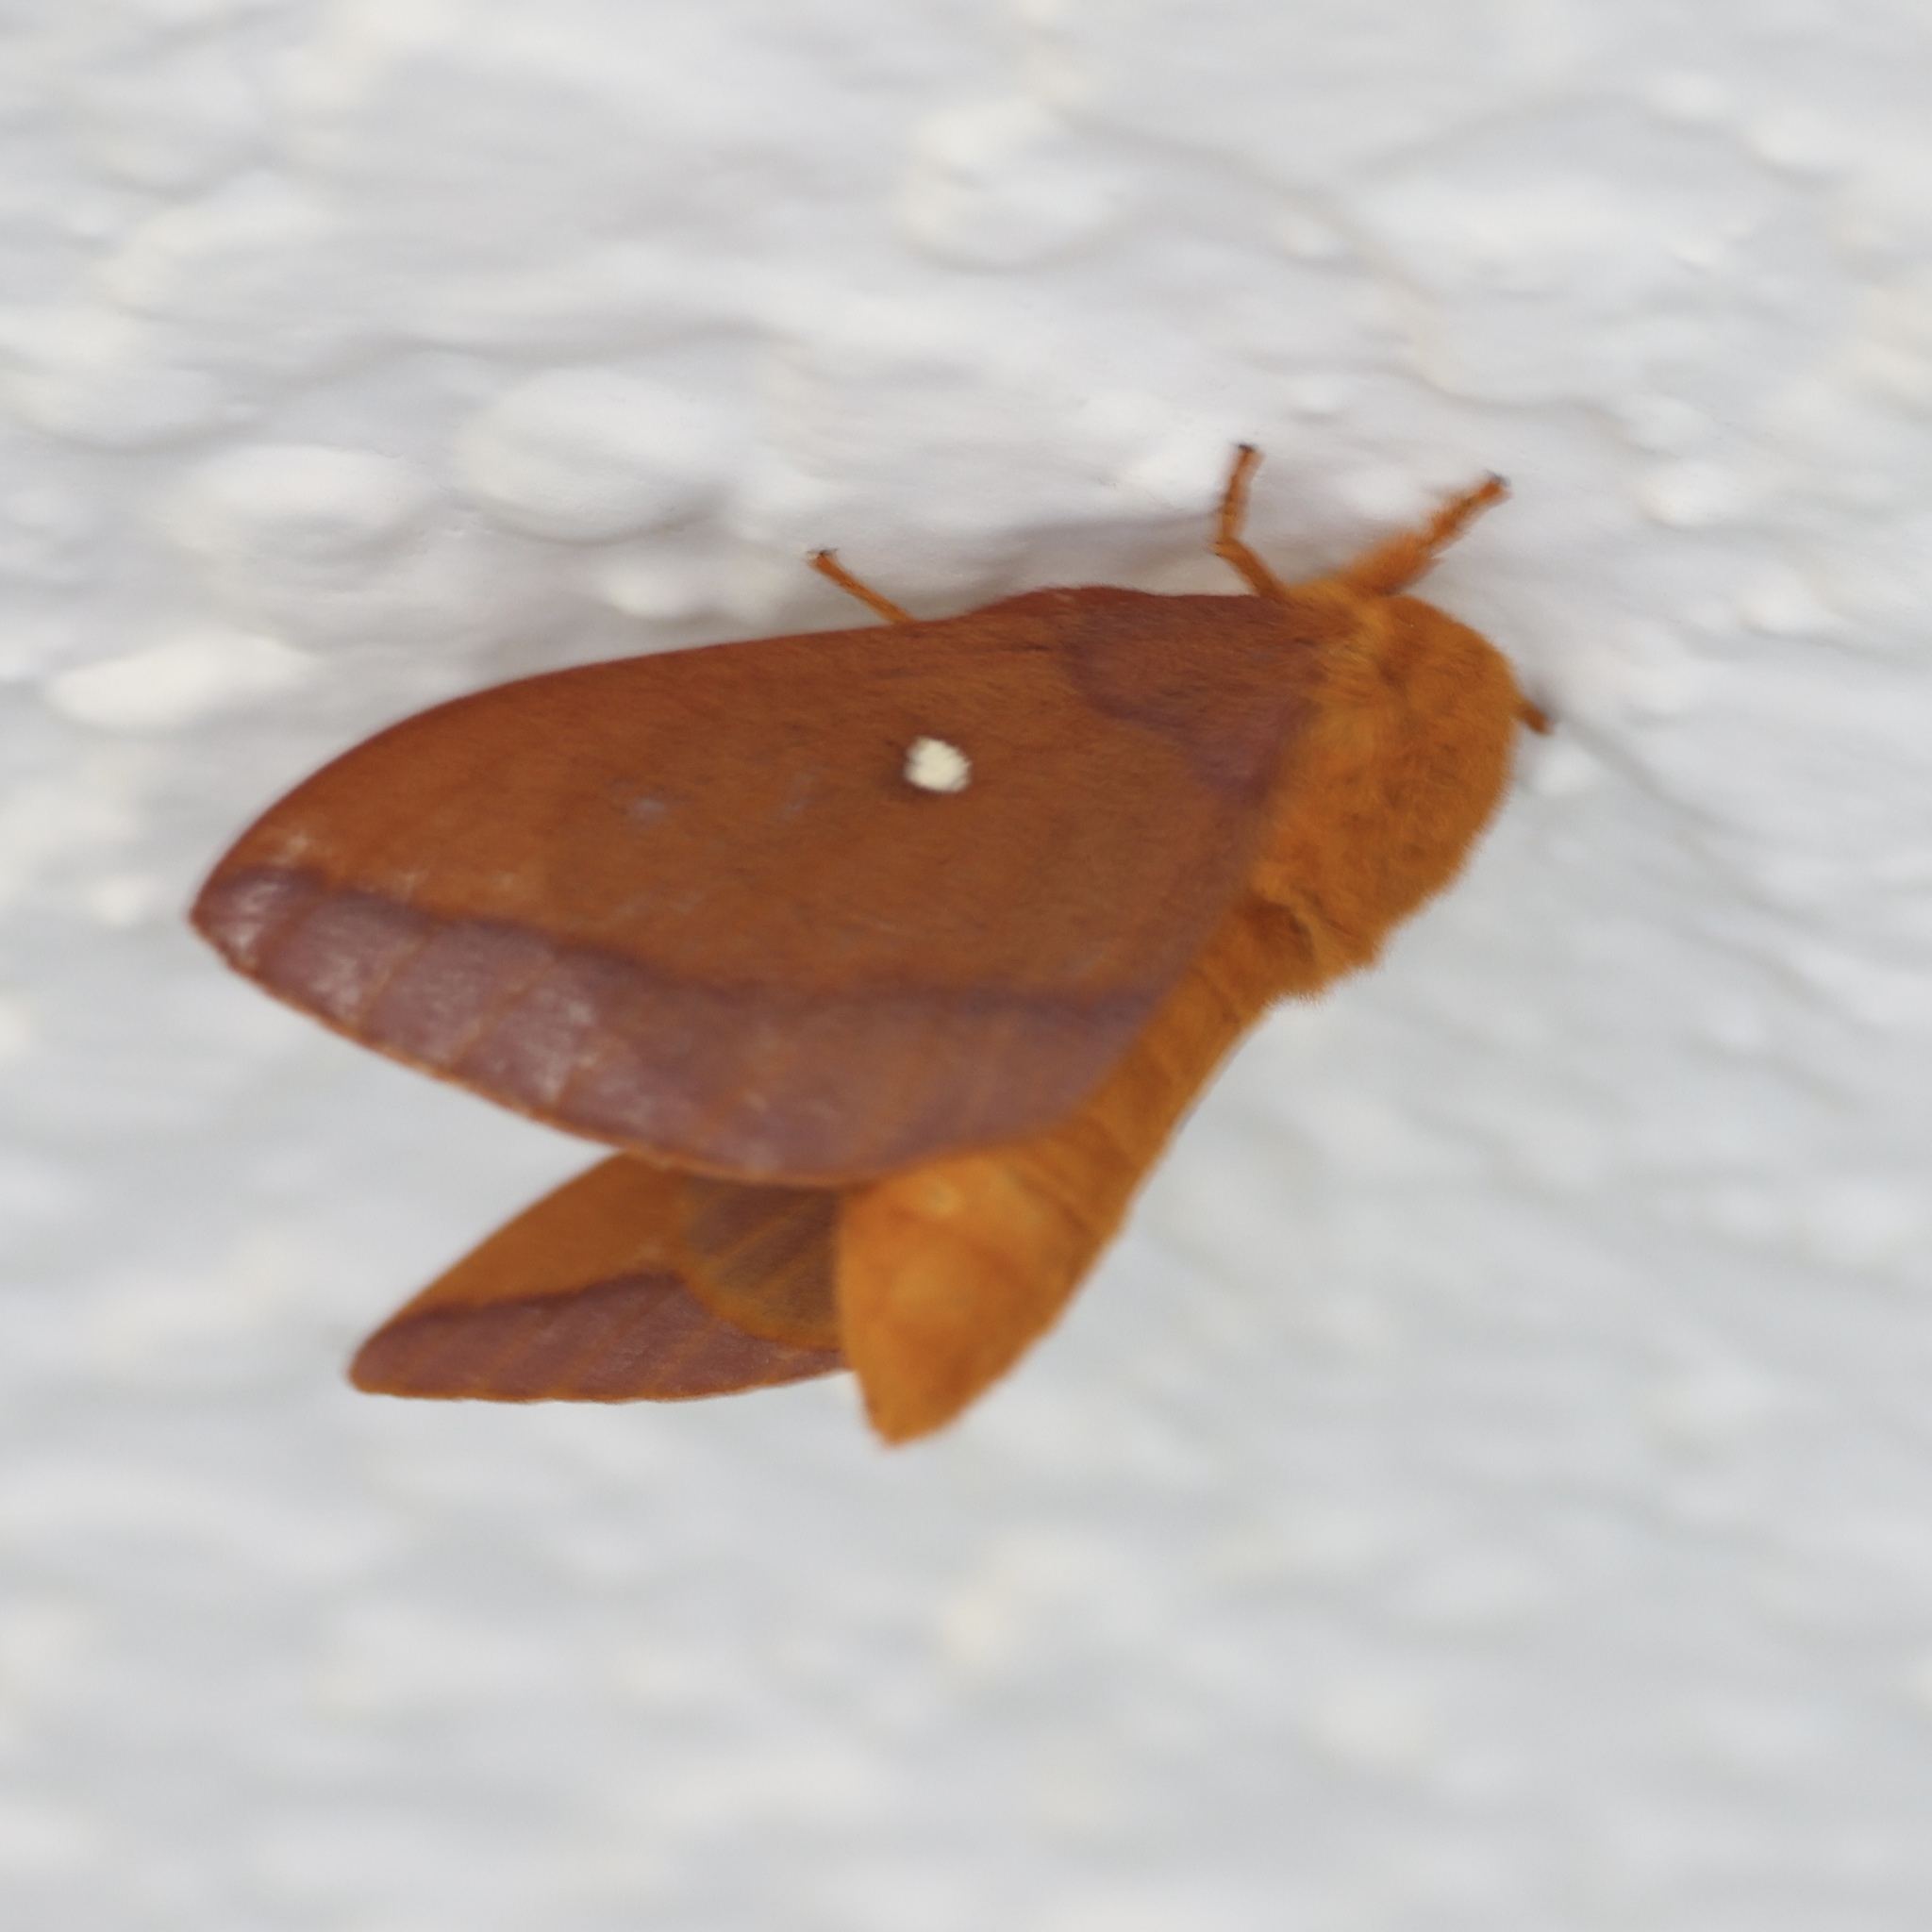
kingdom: Animalia
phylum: Arthropoda
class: Insecta
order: Lepidoptera
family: Saturniidae
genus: Anisota
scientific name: Anisota virginiensis
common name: Pink striped oakworm moth
